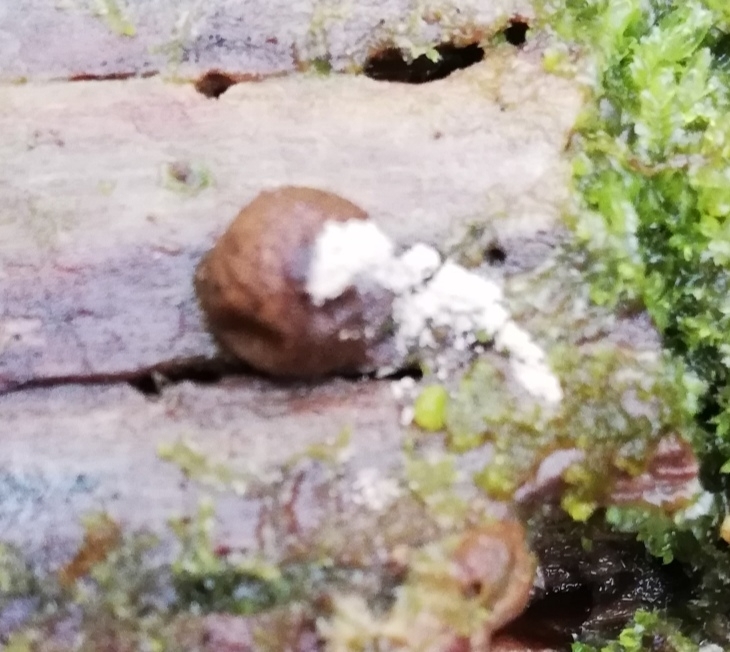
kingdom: Protozoa
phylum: Mycetozoa
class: Myxomycetes
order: Cribrariales
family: Tubiferaceae
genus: Lycogala
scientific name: Lycogala epidendrum
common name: Wolf's milk
